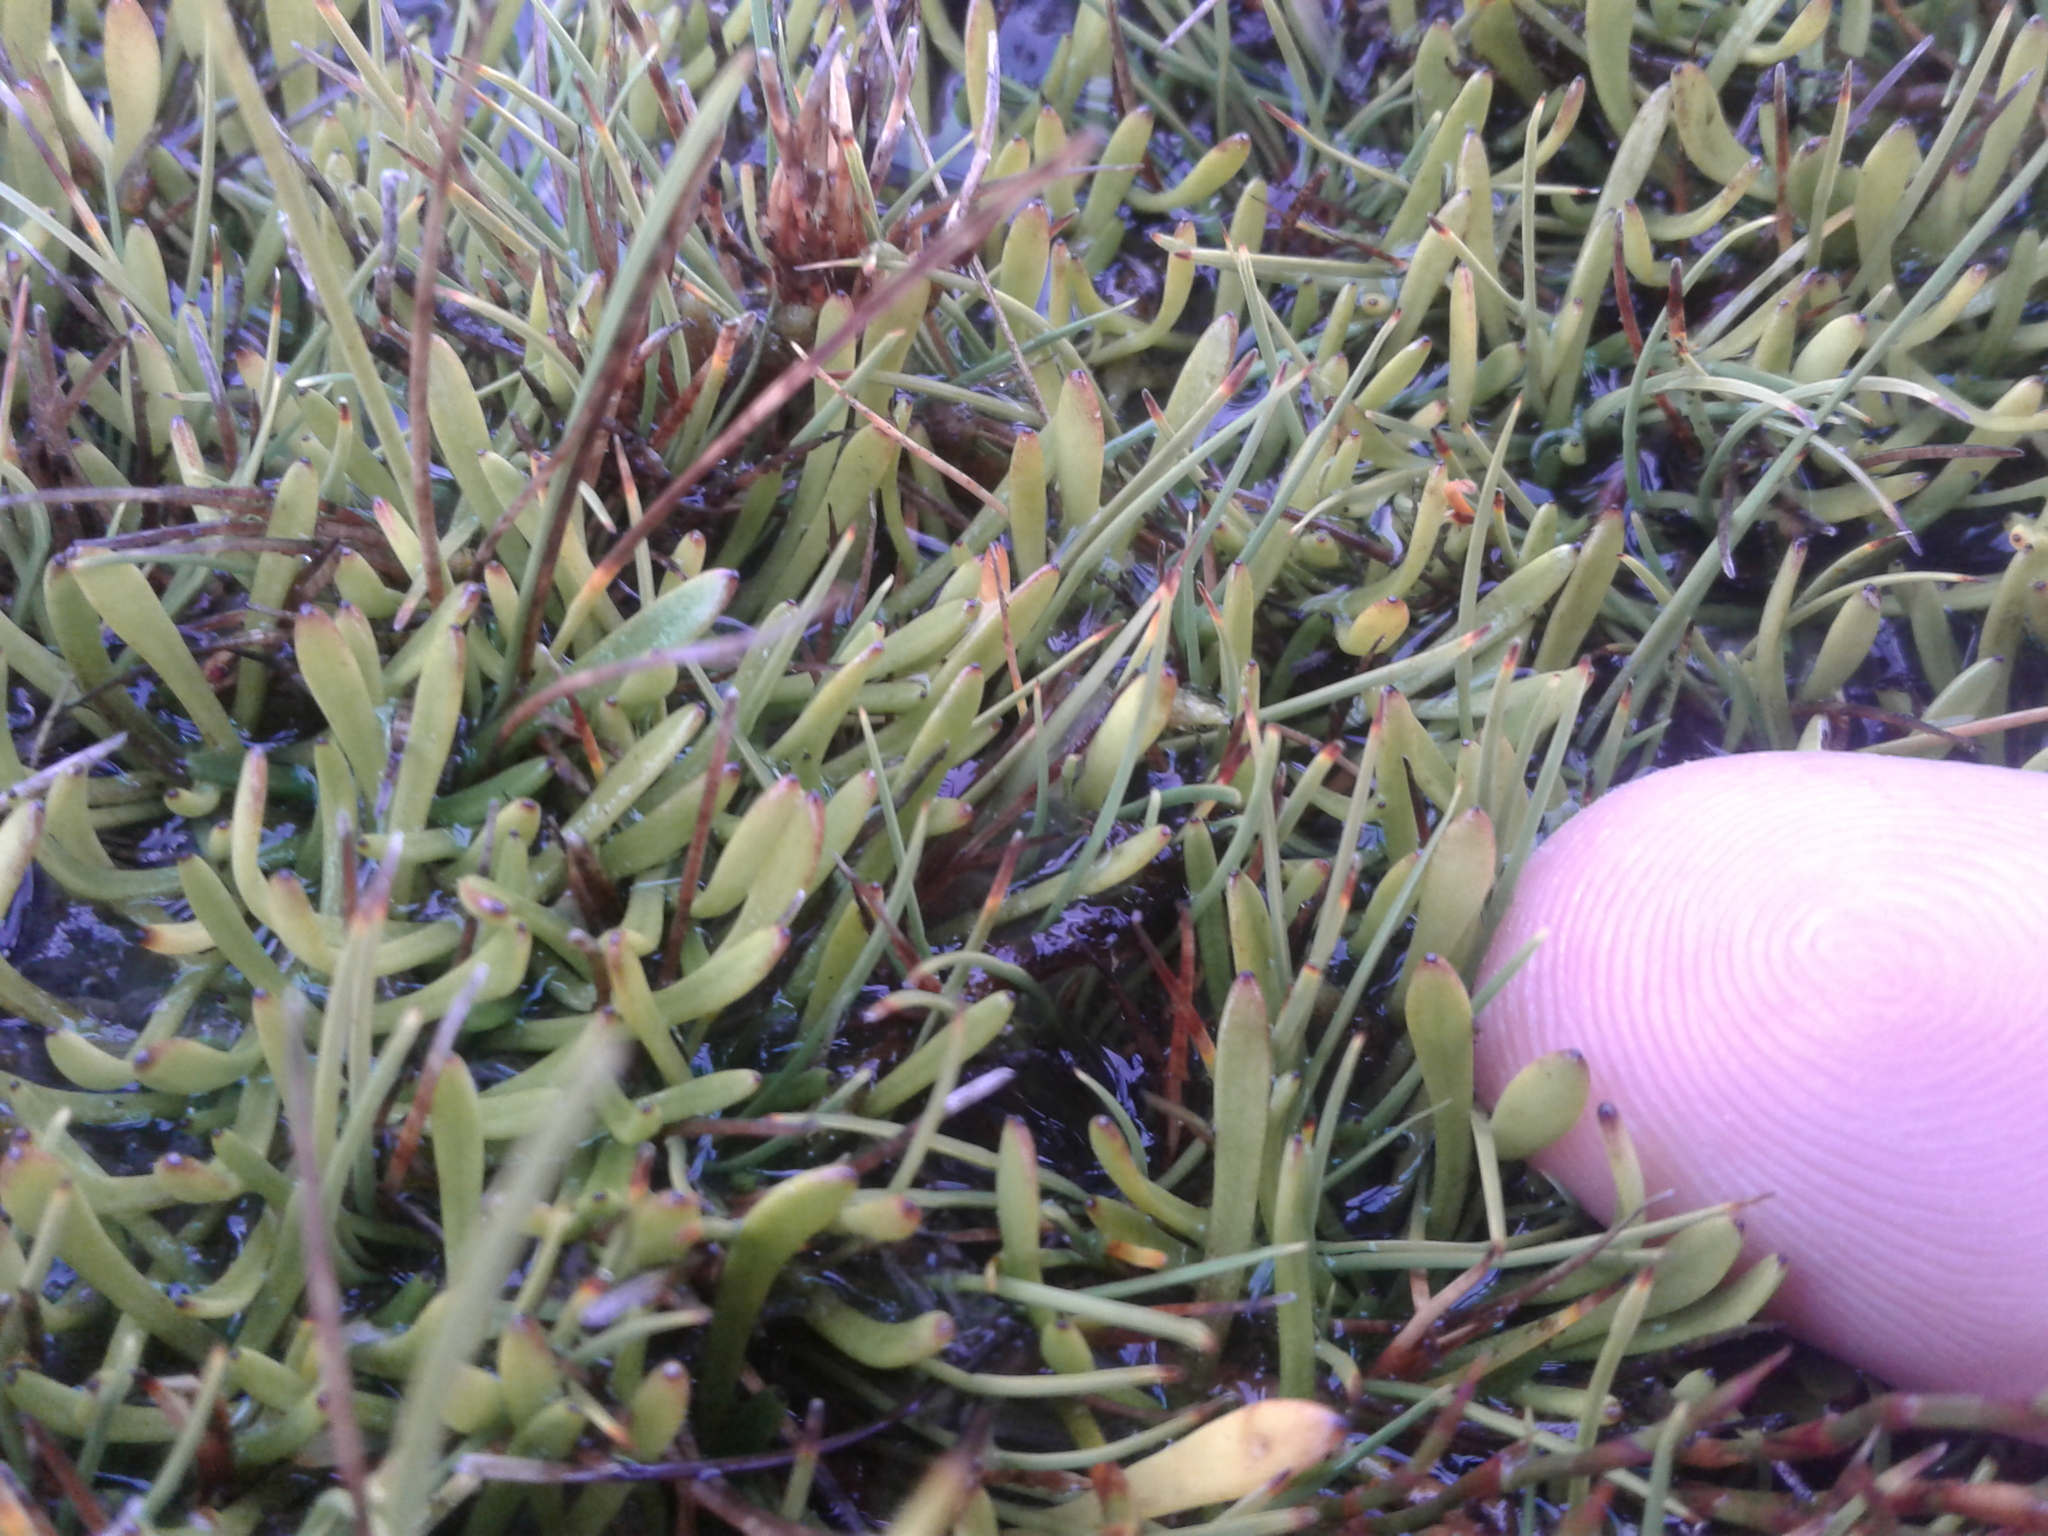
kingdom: Plantae
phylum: Tracheophyta
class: Magnoliopsida
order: Asterales
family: Menyanthaceae
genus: Liparophyllum
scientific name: Liparophyllum gunnii
